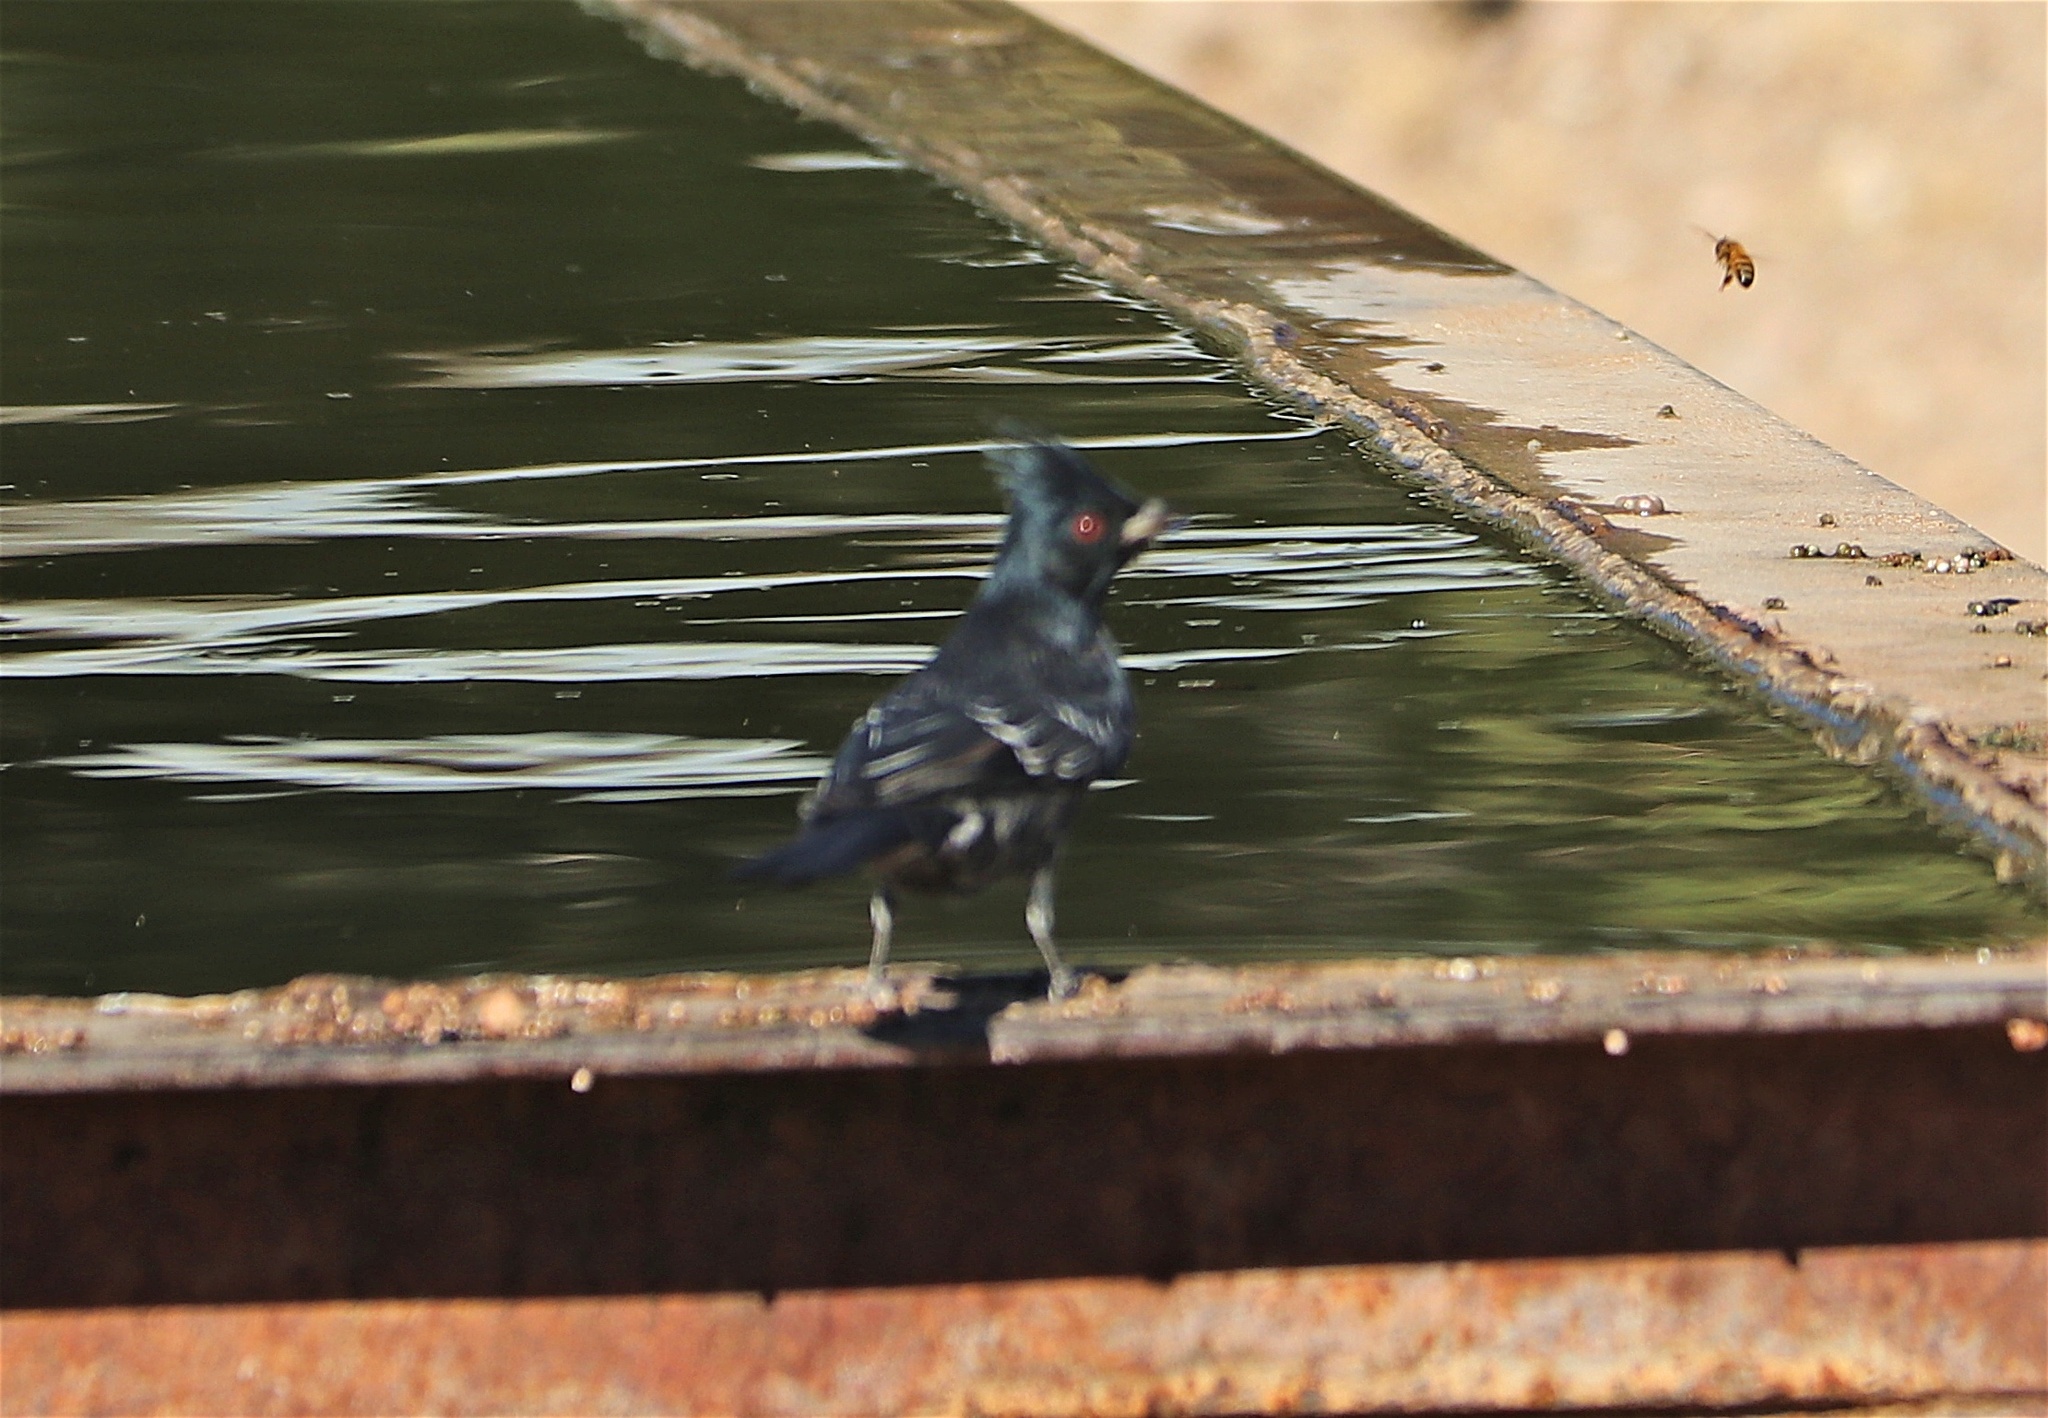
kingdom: Animalia
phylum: Chordata
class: Aves
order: Passeriformes
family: Ptilogonatidae
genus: Phainopepla
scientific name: Phainopepla nitens
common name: Phainopepla
